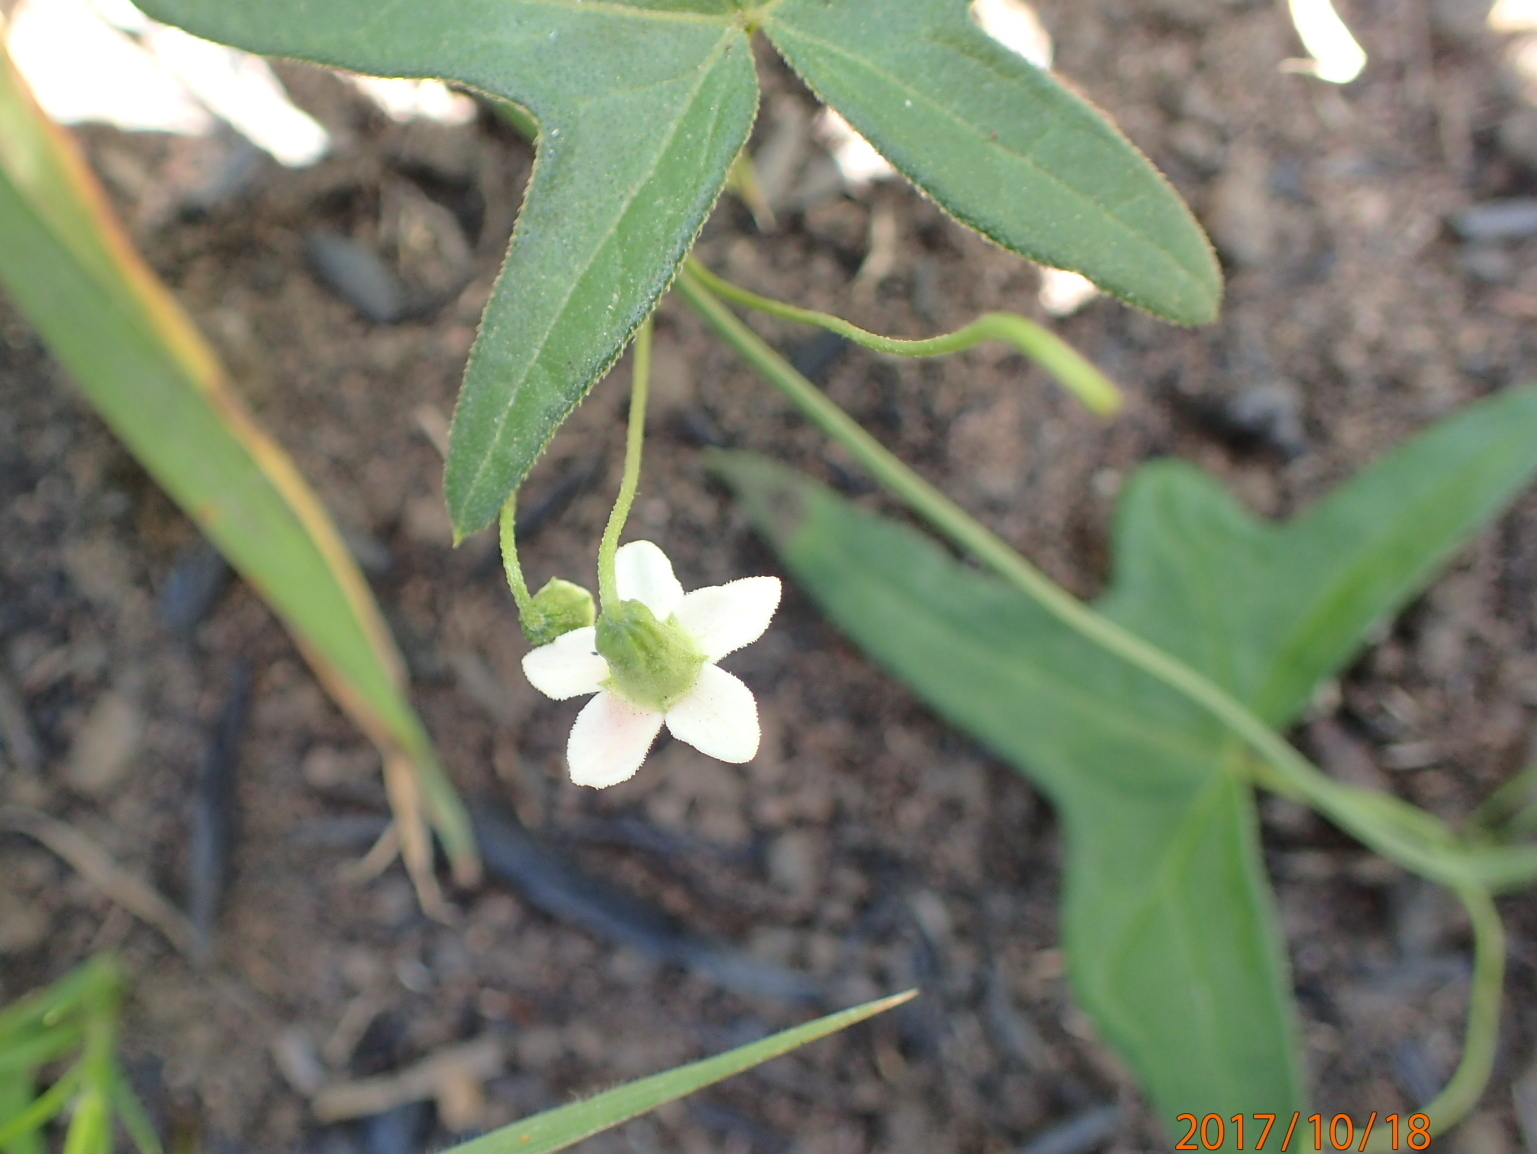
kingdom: Plantae
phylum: Tracheophyta
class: Magnoliopsida
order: Cucurbitales
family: Cucurbitaceae
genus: Trochomeria
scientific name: Trochomeria sagittata
